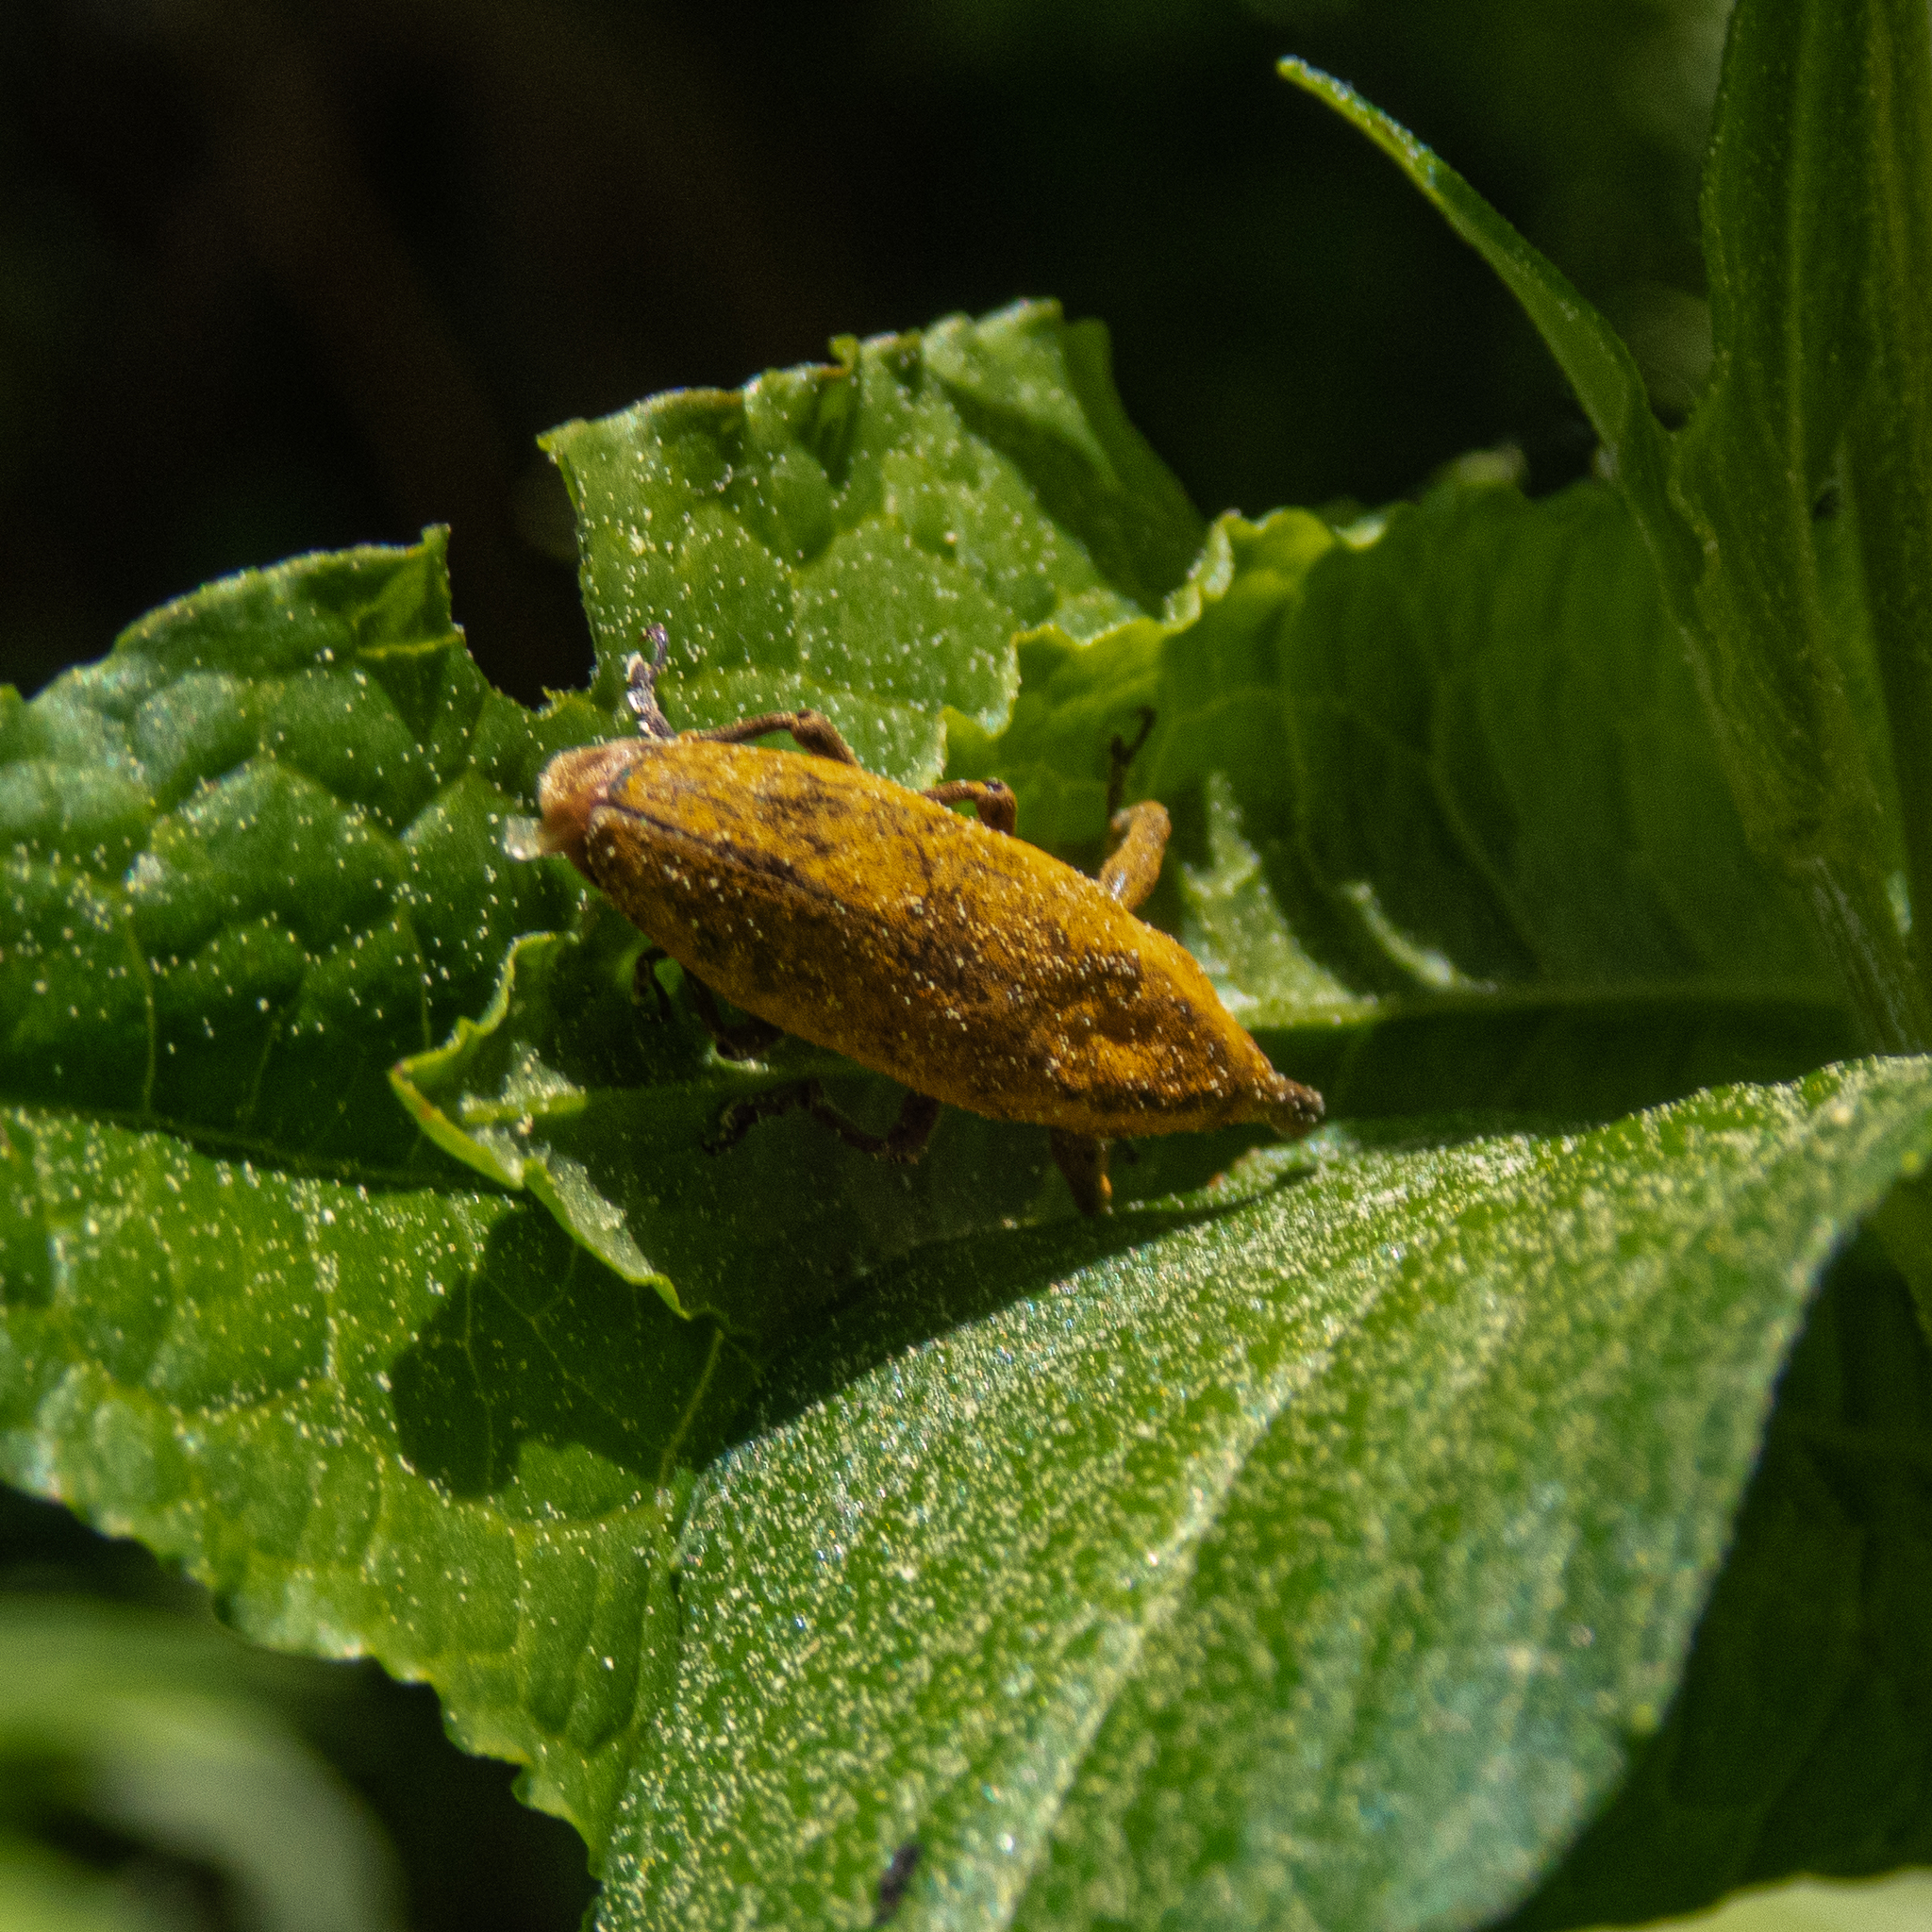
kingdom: Animalia
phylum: Arthropoda
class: Insecta
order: Coleoptera
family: Curculionidae
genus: Lixus
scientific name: Lixus concavus
